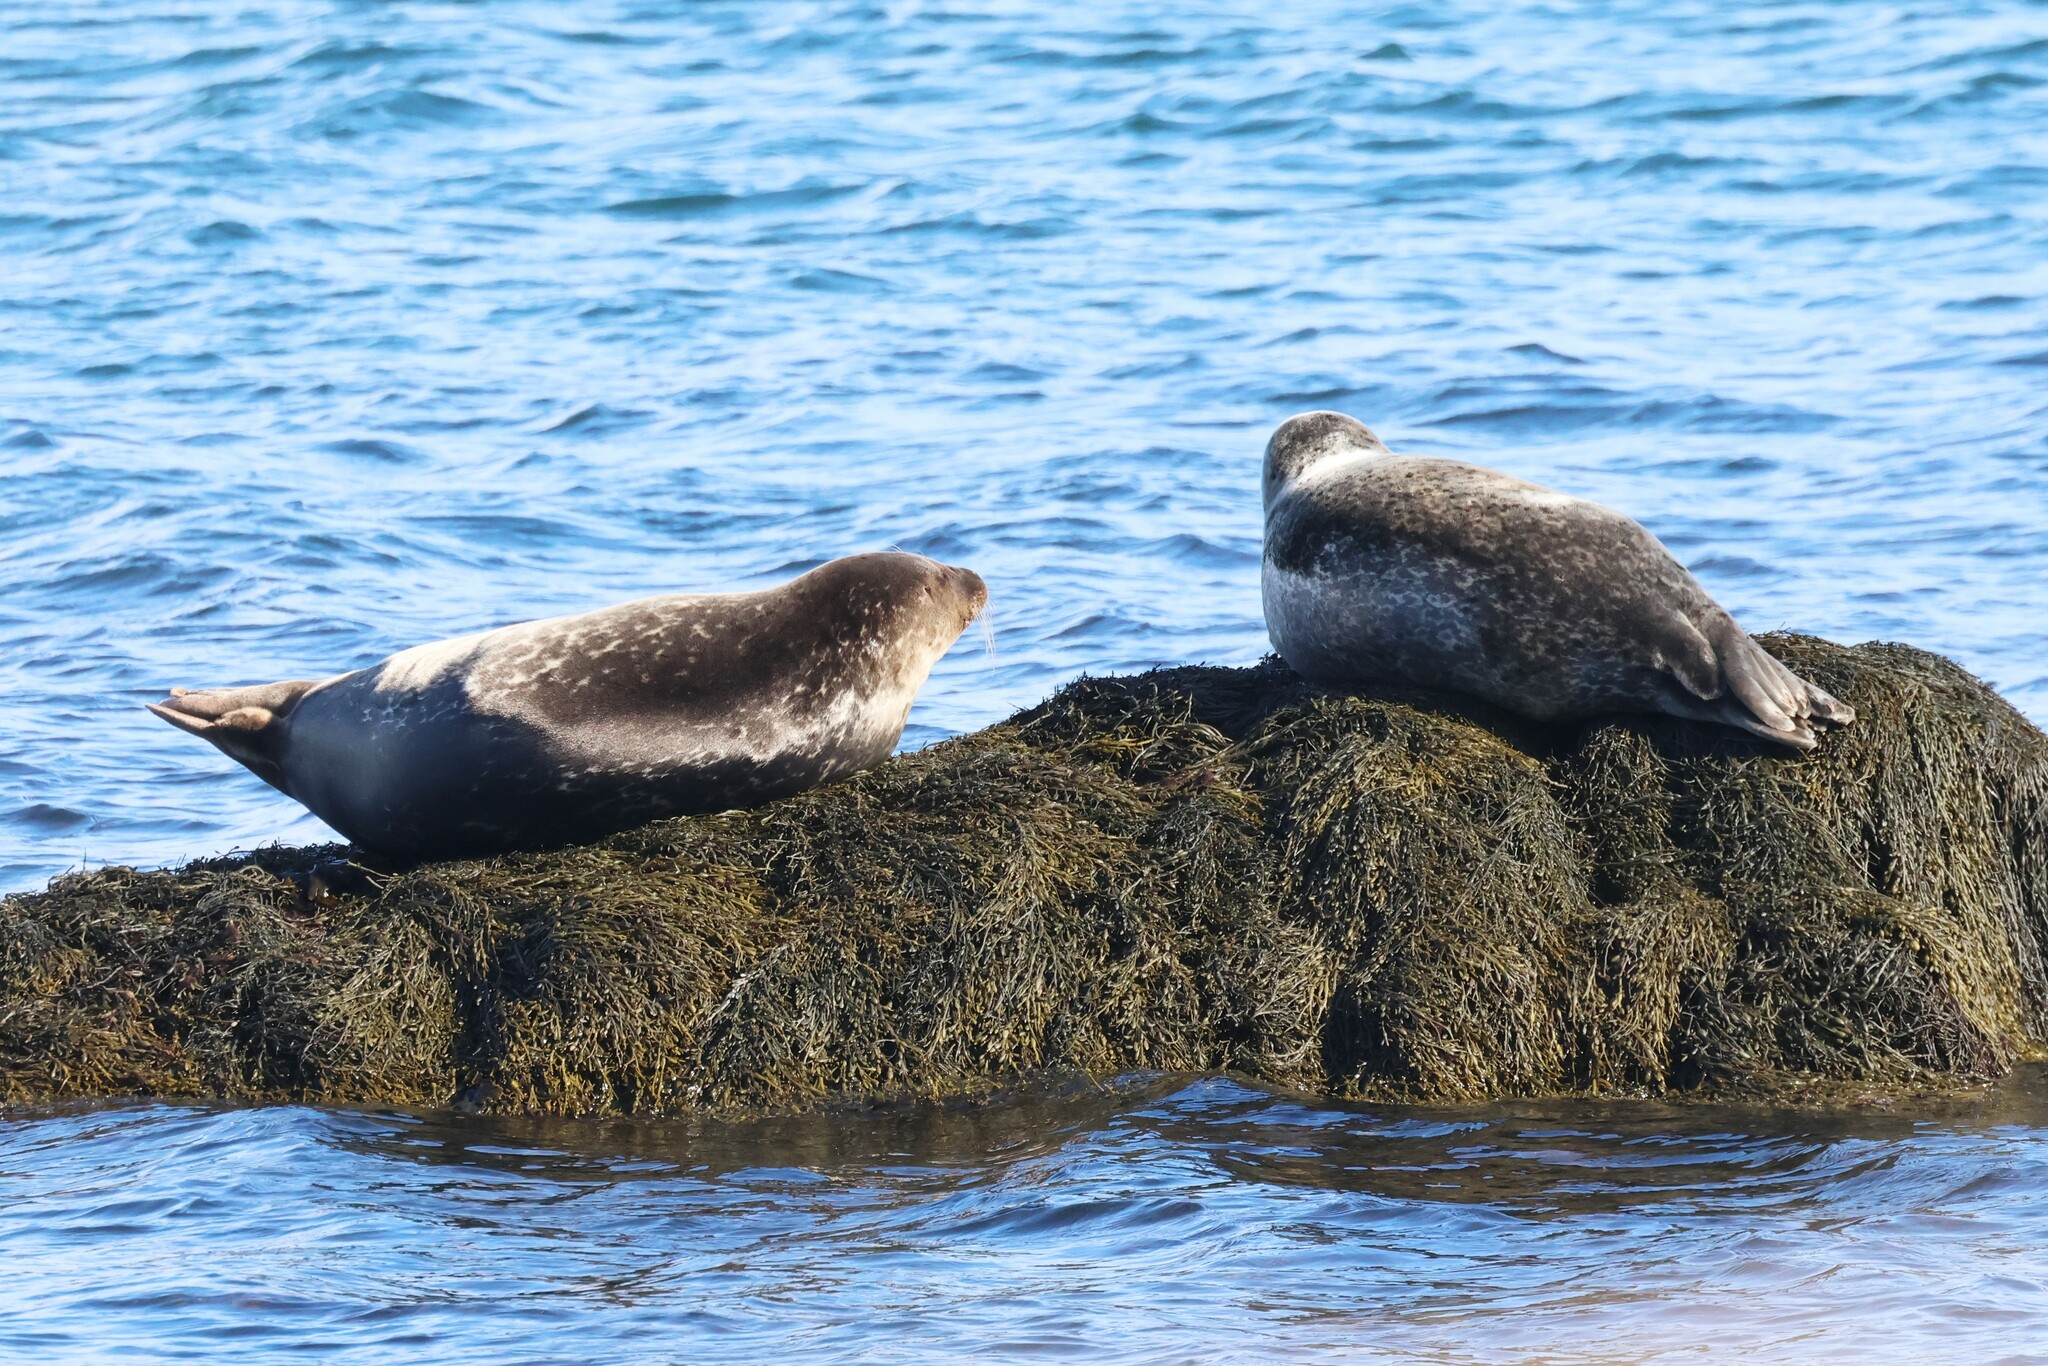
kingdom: Animalia
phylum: Chordata
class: Mammalia
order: Carnivora
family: Phocidae
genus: Phoca
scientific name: Phoca vitulina
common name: Harbor seal
